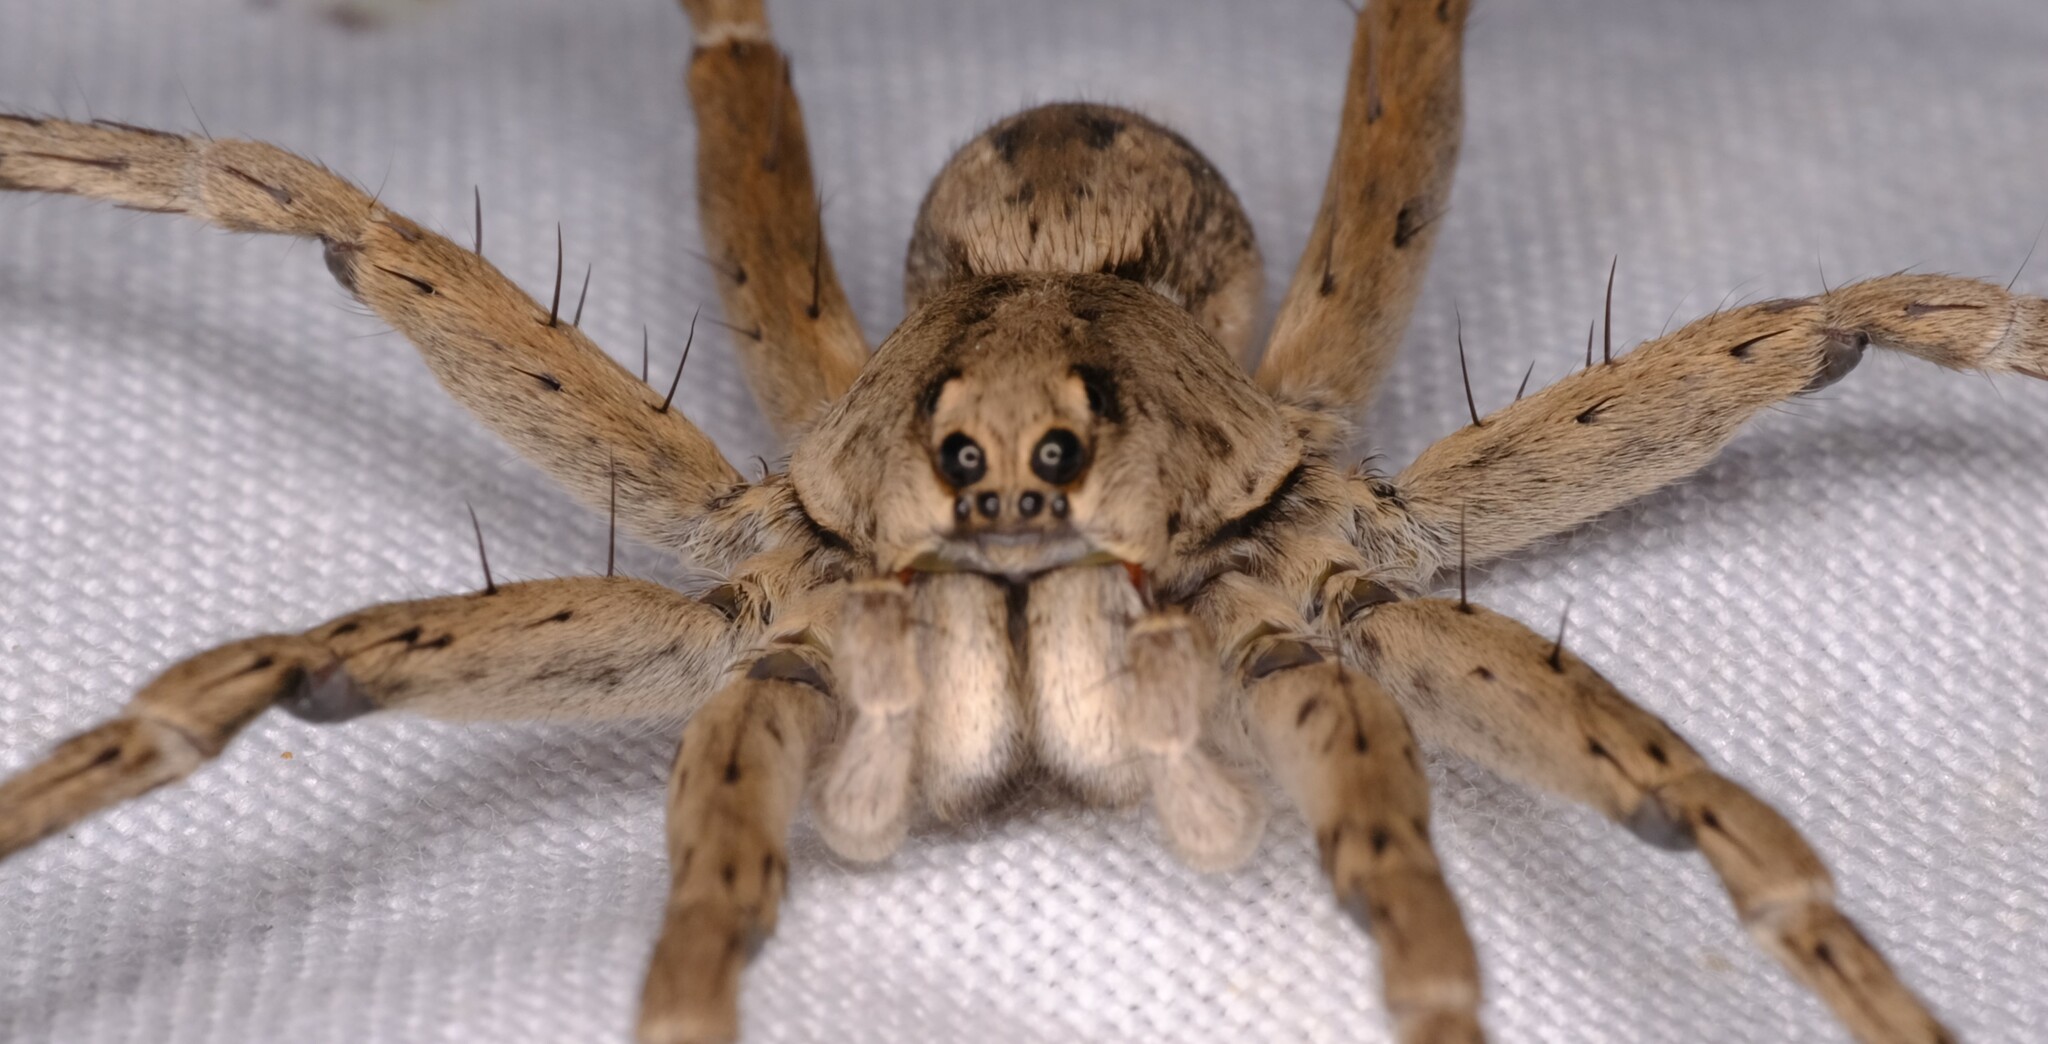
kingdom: Animalia
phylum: Arthropoda
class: Arachnida
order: Araneae
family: Lycosidae
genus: Portacosa
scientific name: Portacosa cinerea
